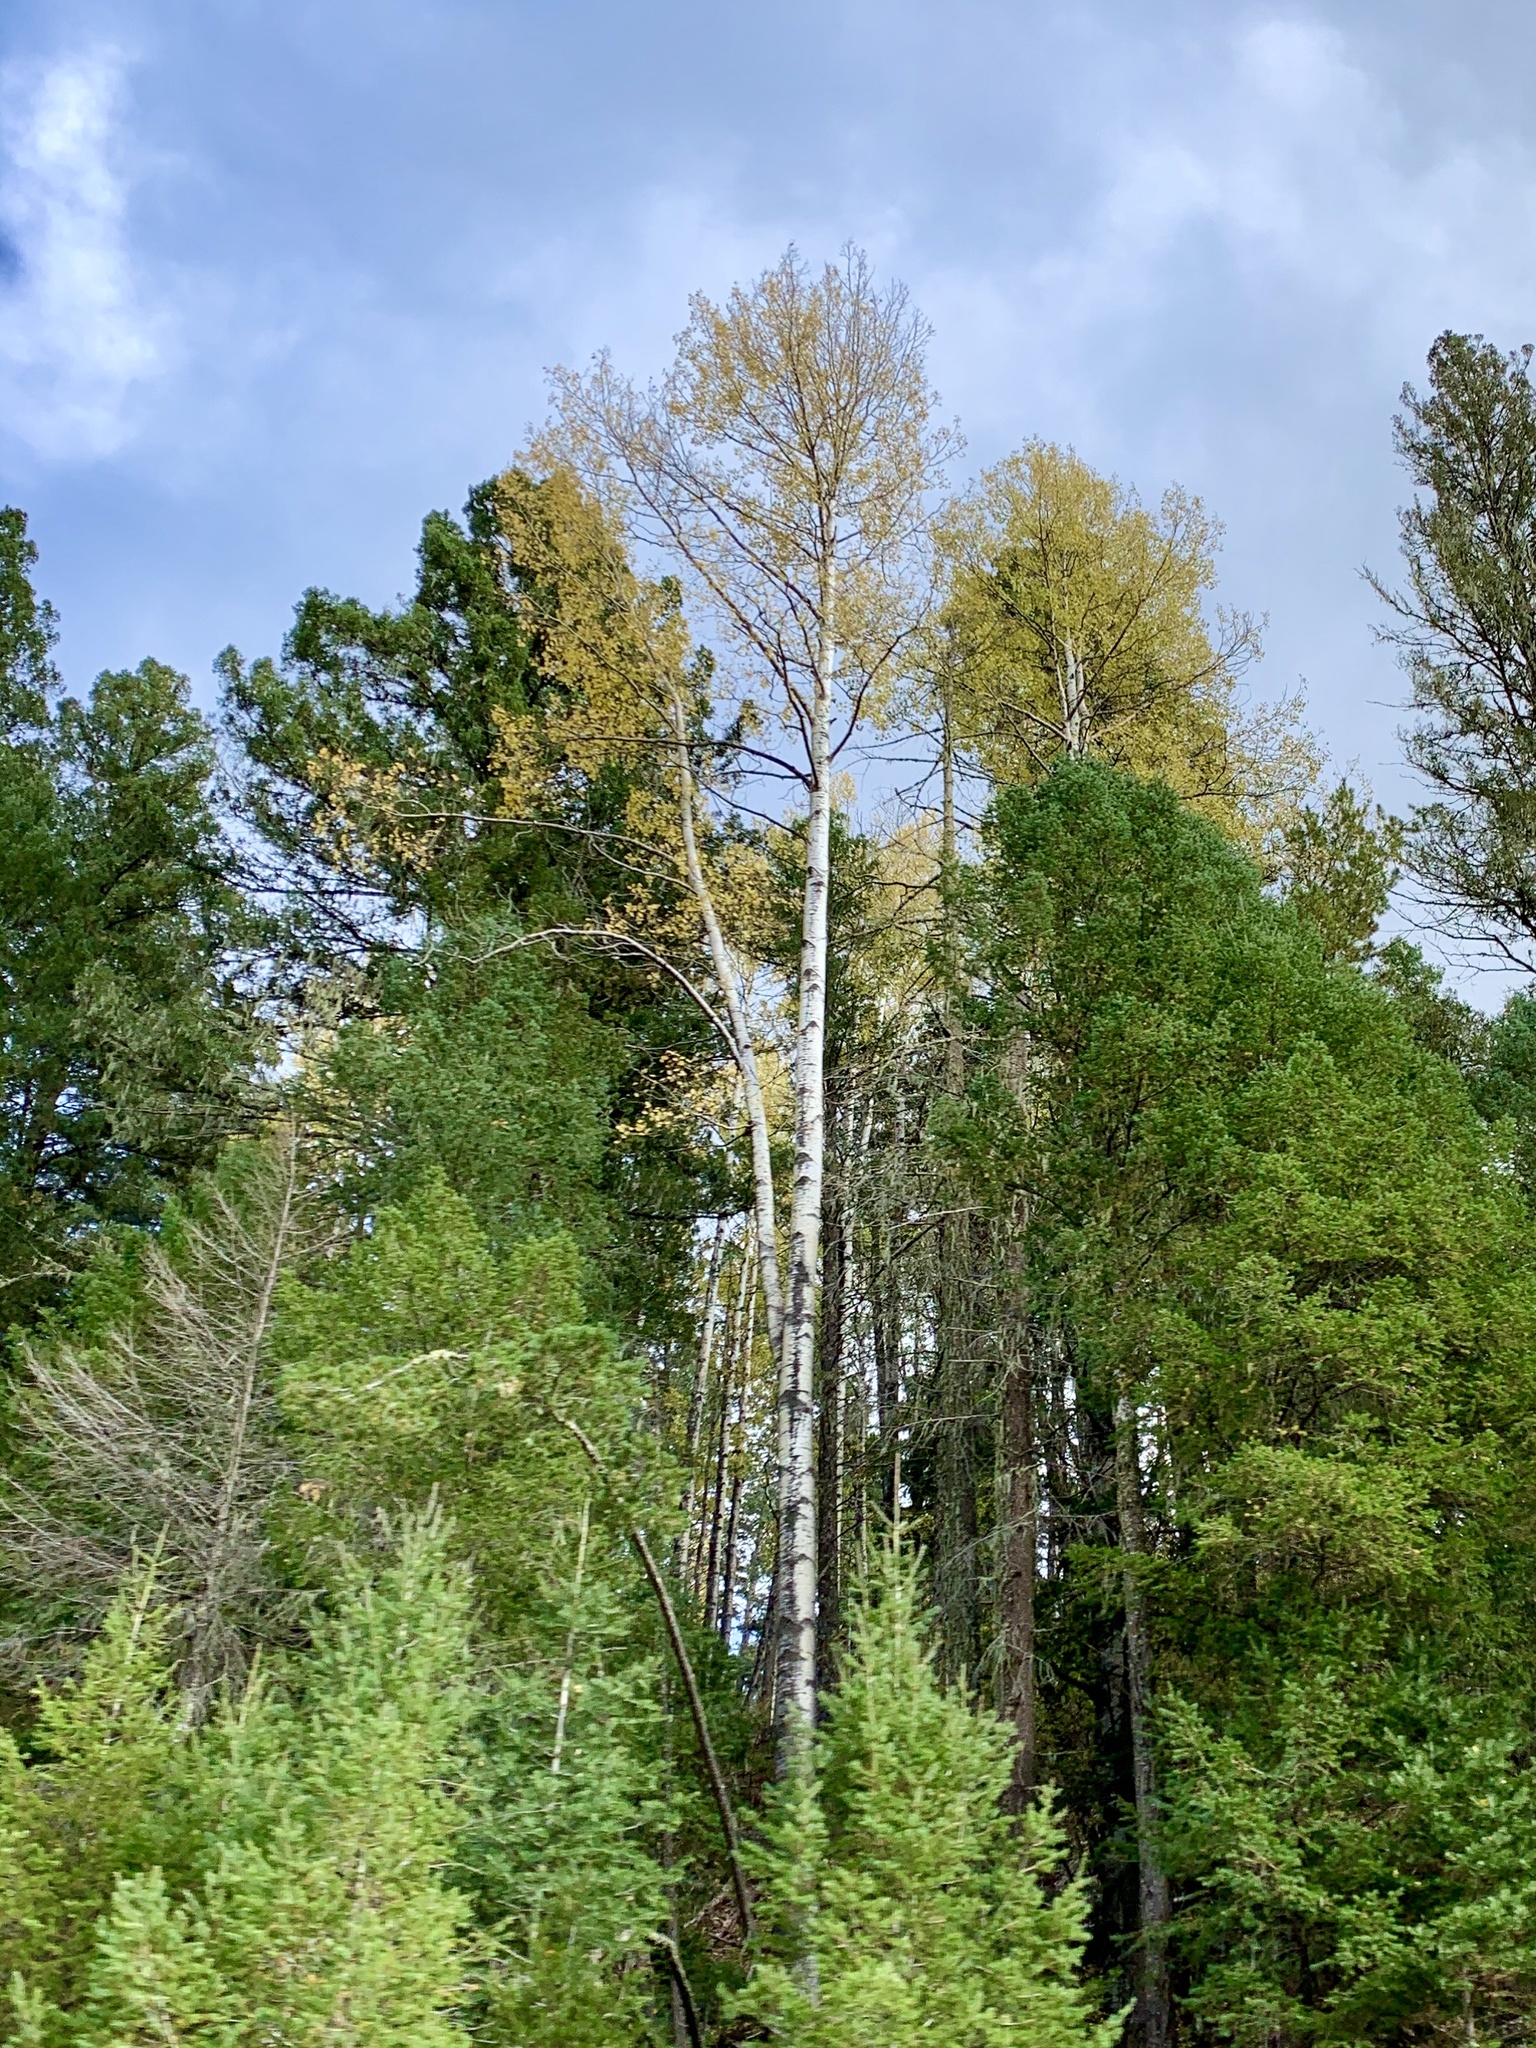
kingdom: Plantae
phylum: Tracheophyta
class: Magnoliopsida
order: Malpighiales
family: Salicaceae
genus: Populus
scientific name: Populus tremuloides
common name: Quaking aspen
